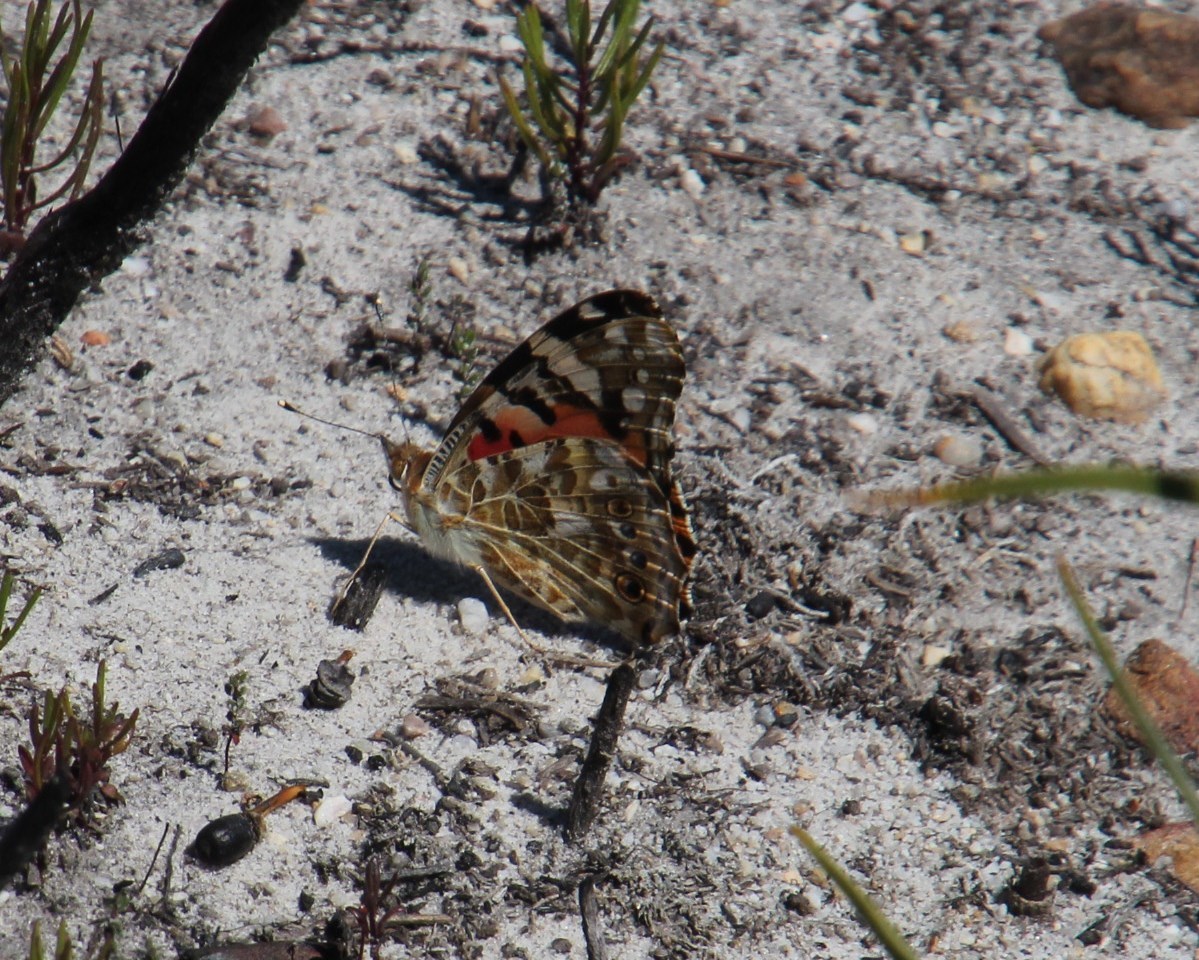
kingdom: Animalia
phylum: Arthropoda
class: Insecta
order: Lepidoptera
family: Nymphalidae
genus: Vanessa
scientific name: Vanessa cardui
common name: Painted lady
